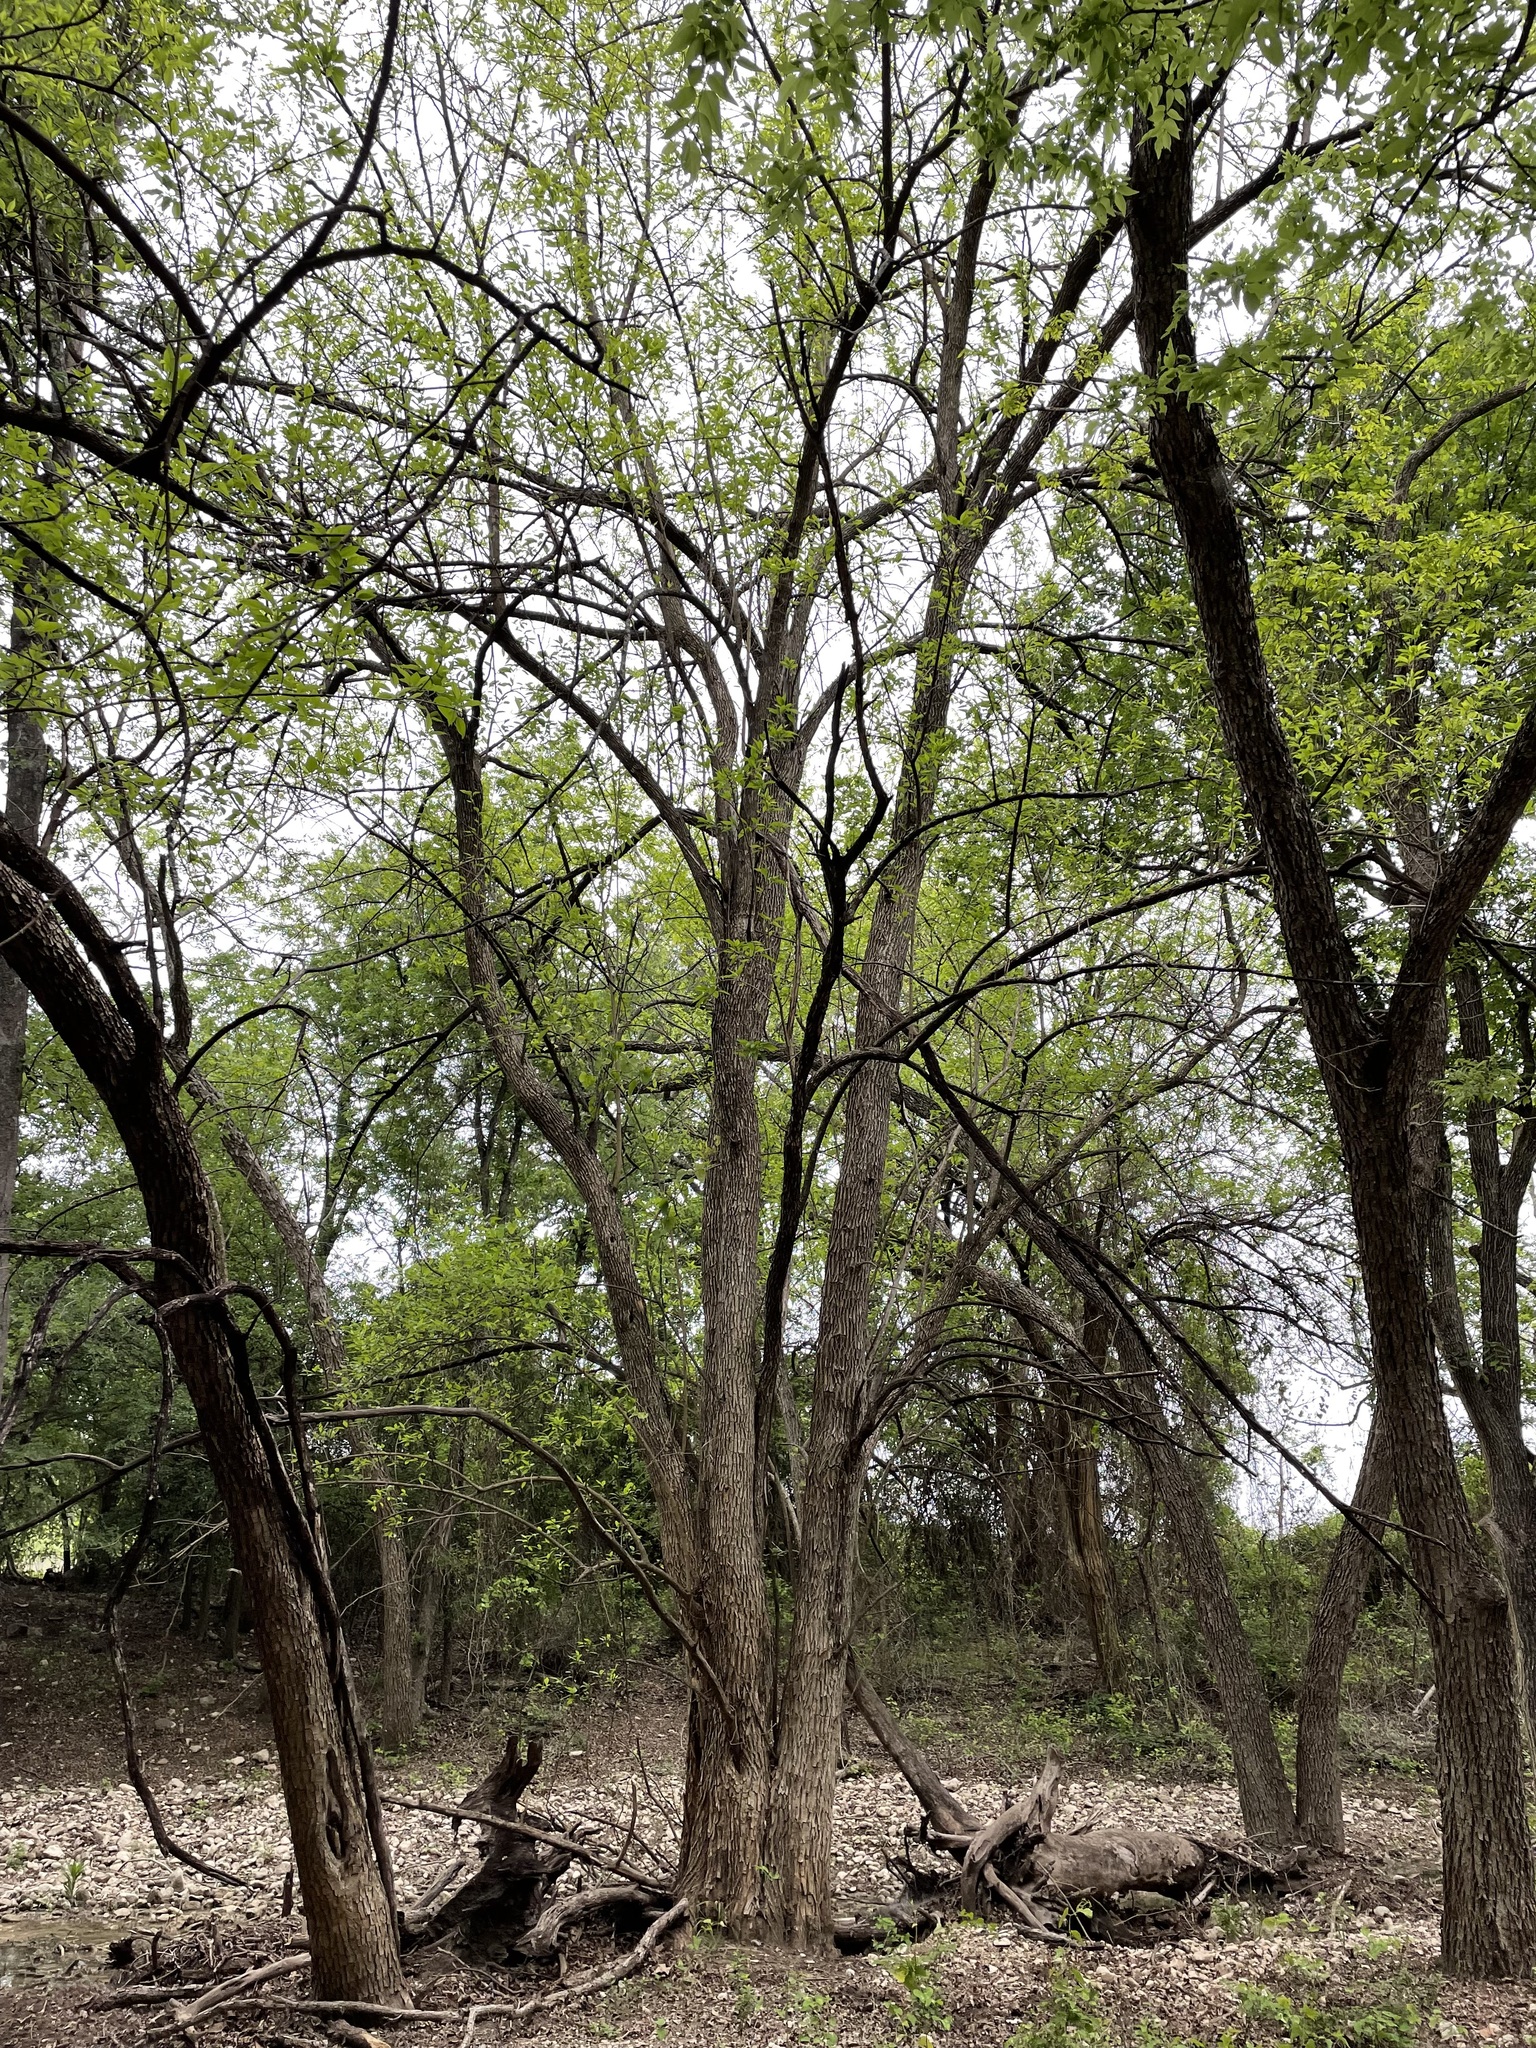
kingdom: Plantae
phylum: Tracheophyta
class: Magnoliopsida
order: Rosales
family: Moraceae
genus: Maclura
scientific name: Maclura pomifera
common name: Osage-orange
